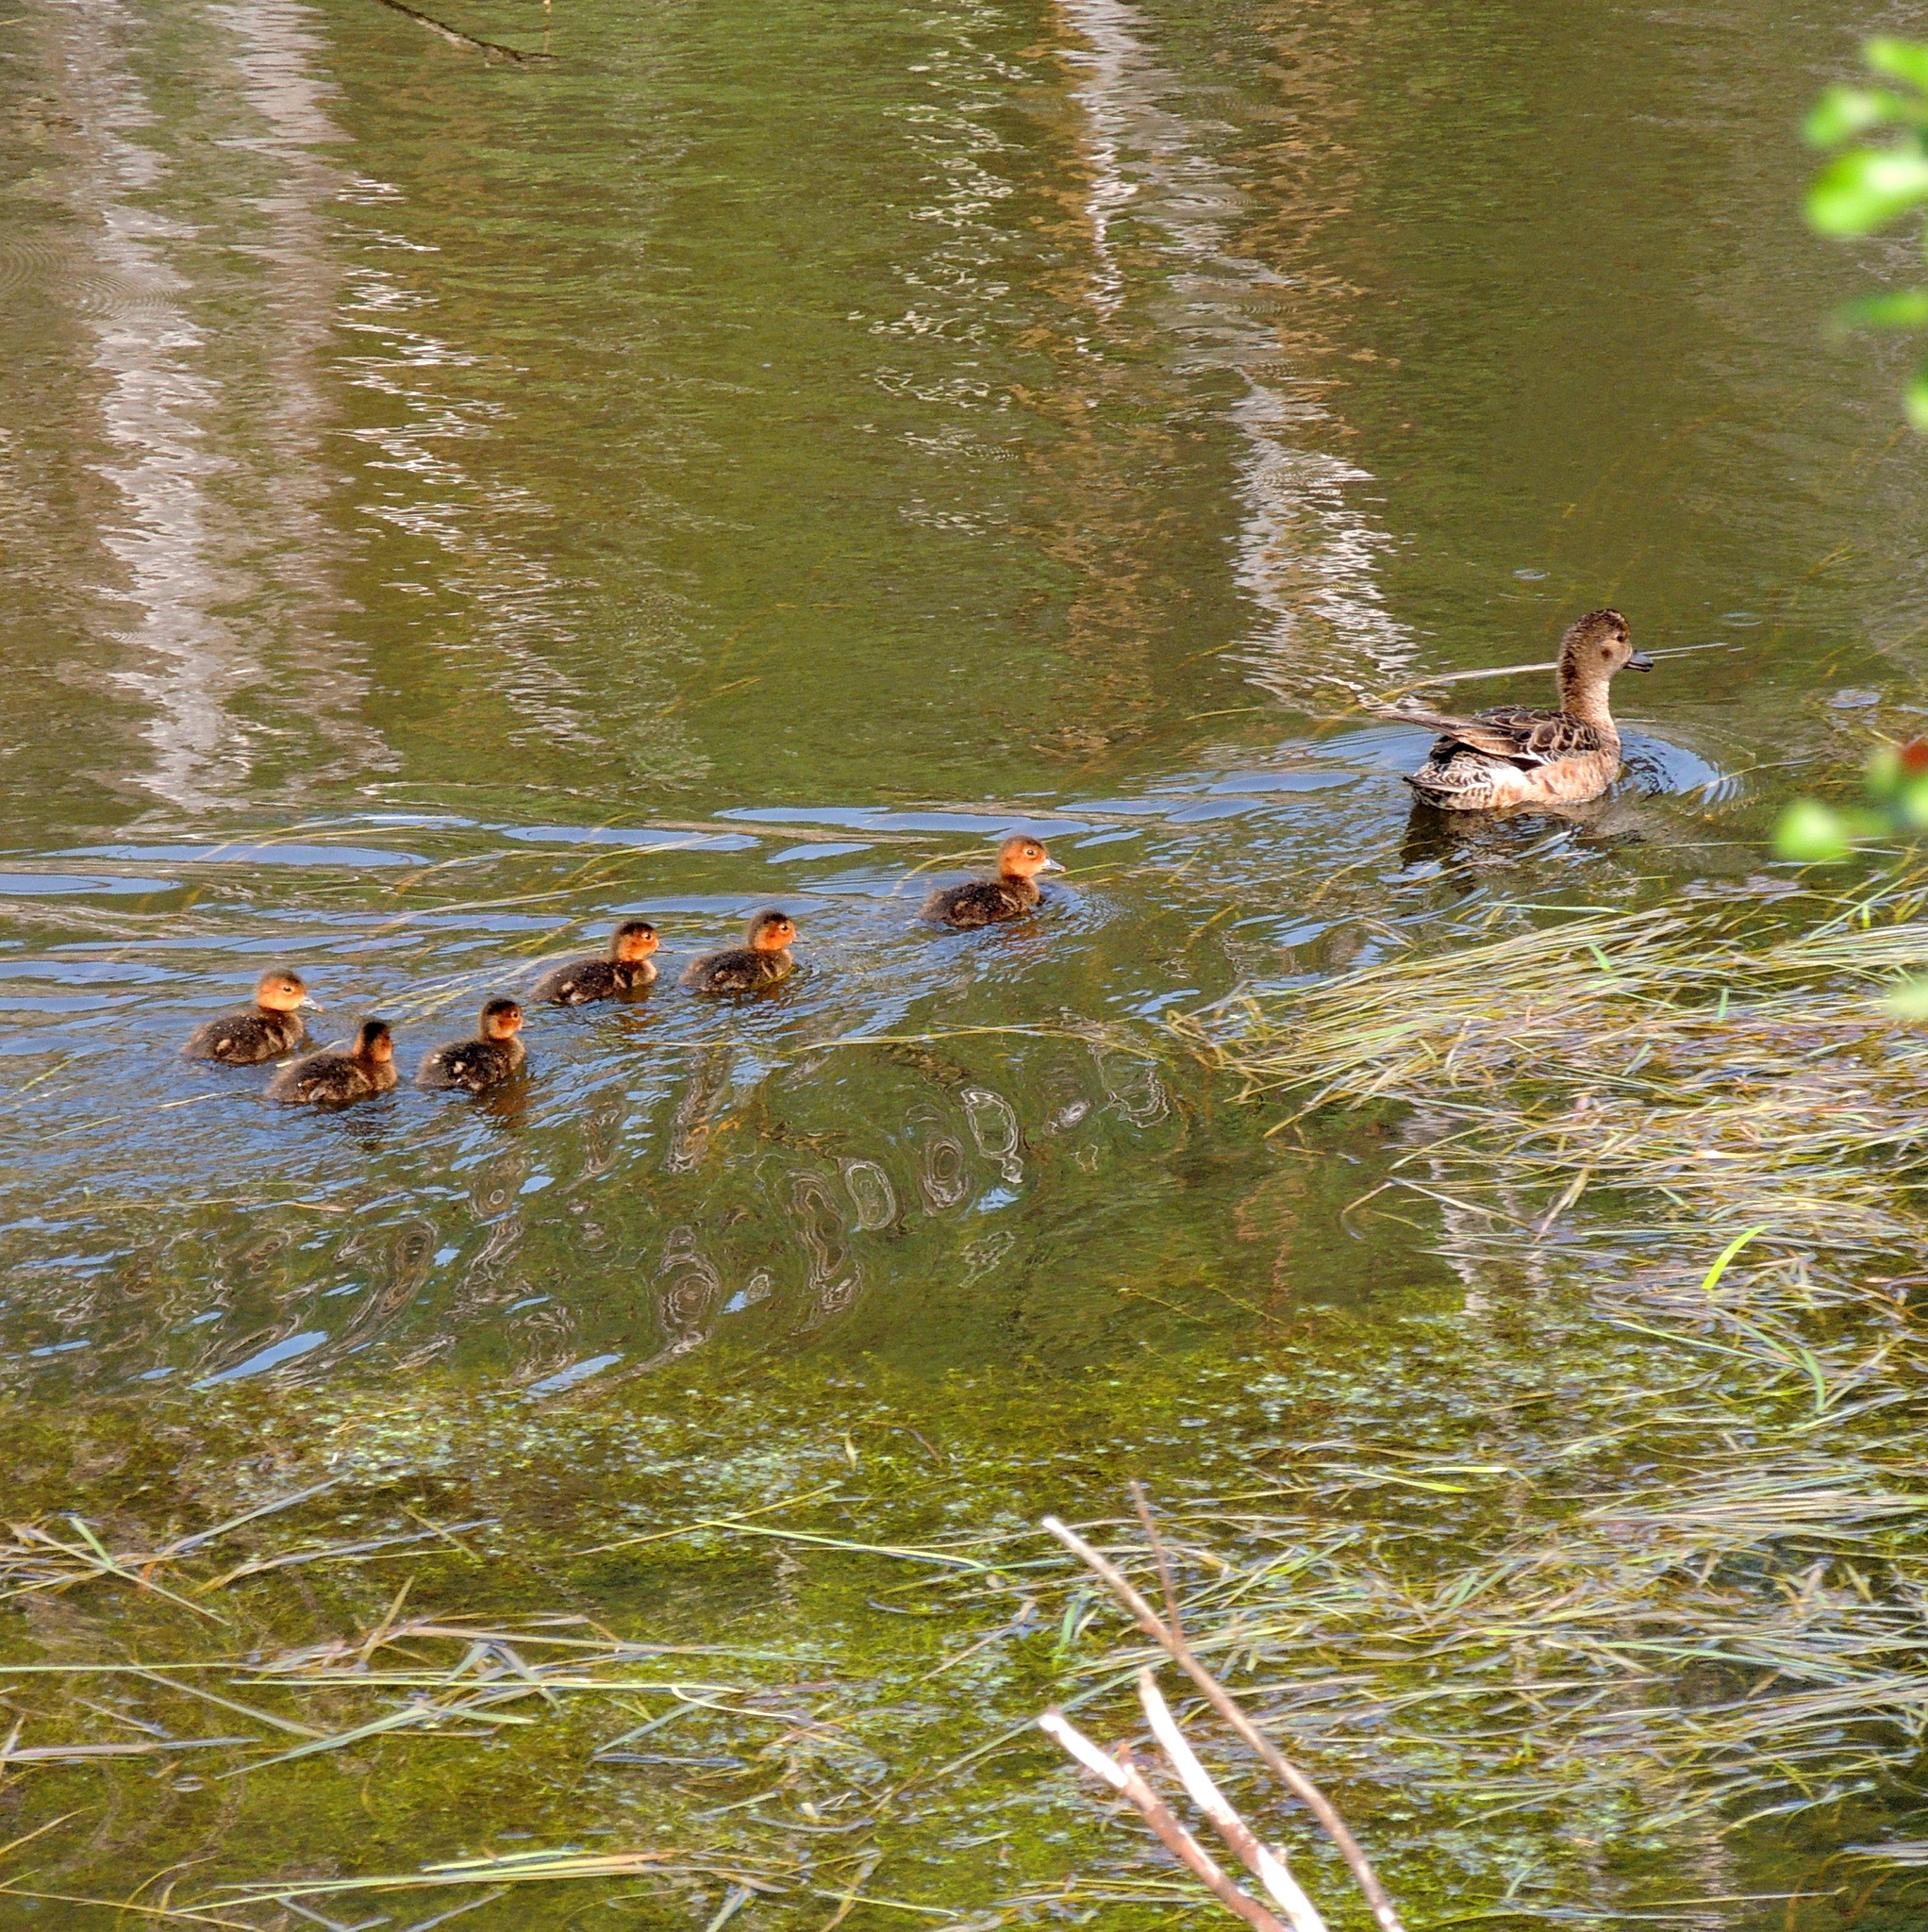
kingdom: Animalia
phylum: Chordata
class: Aves
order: Anseriformes
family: Anatidae
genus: Mareca
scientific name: Mareca penelope
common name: Eurasian wigeon
